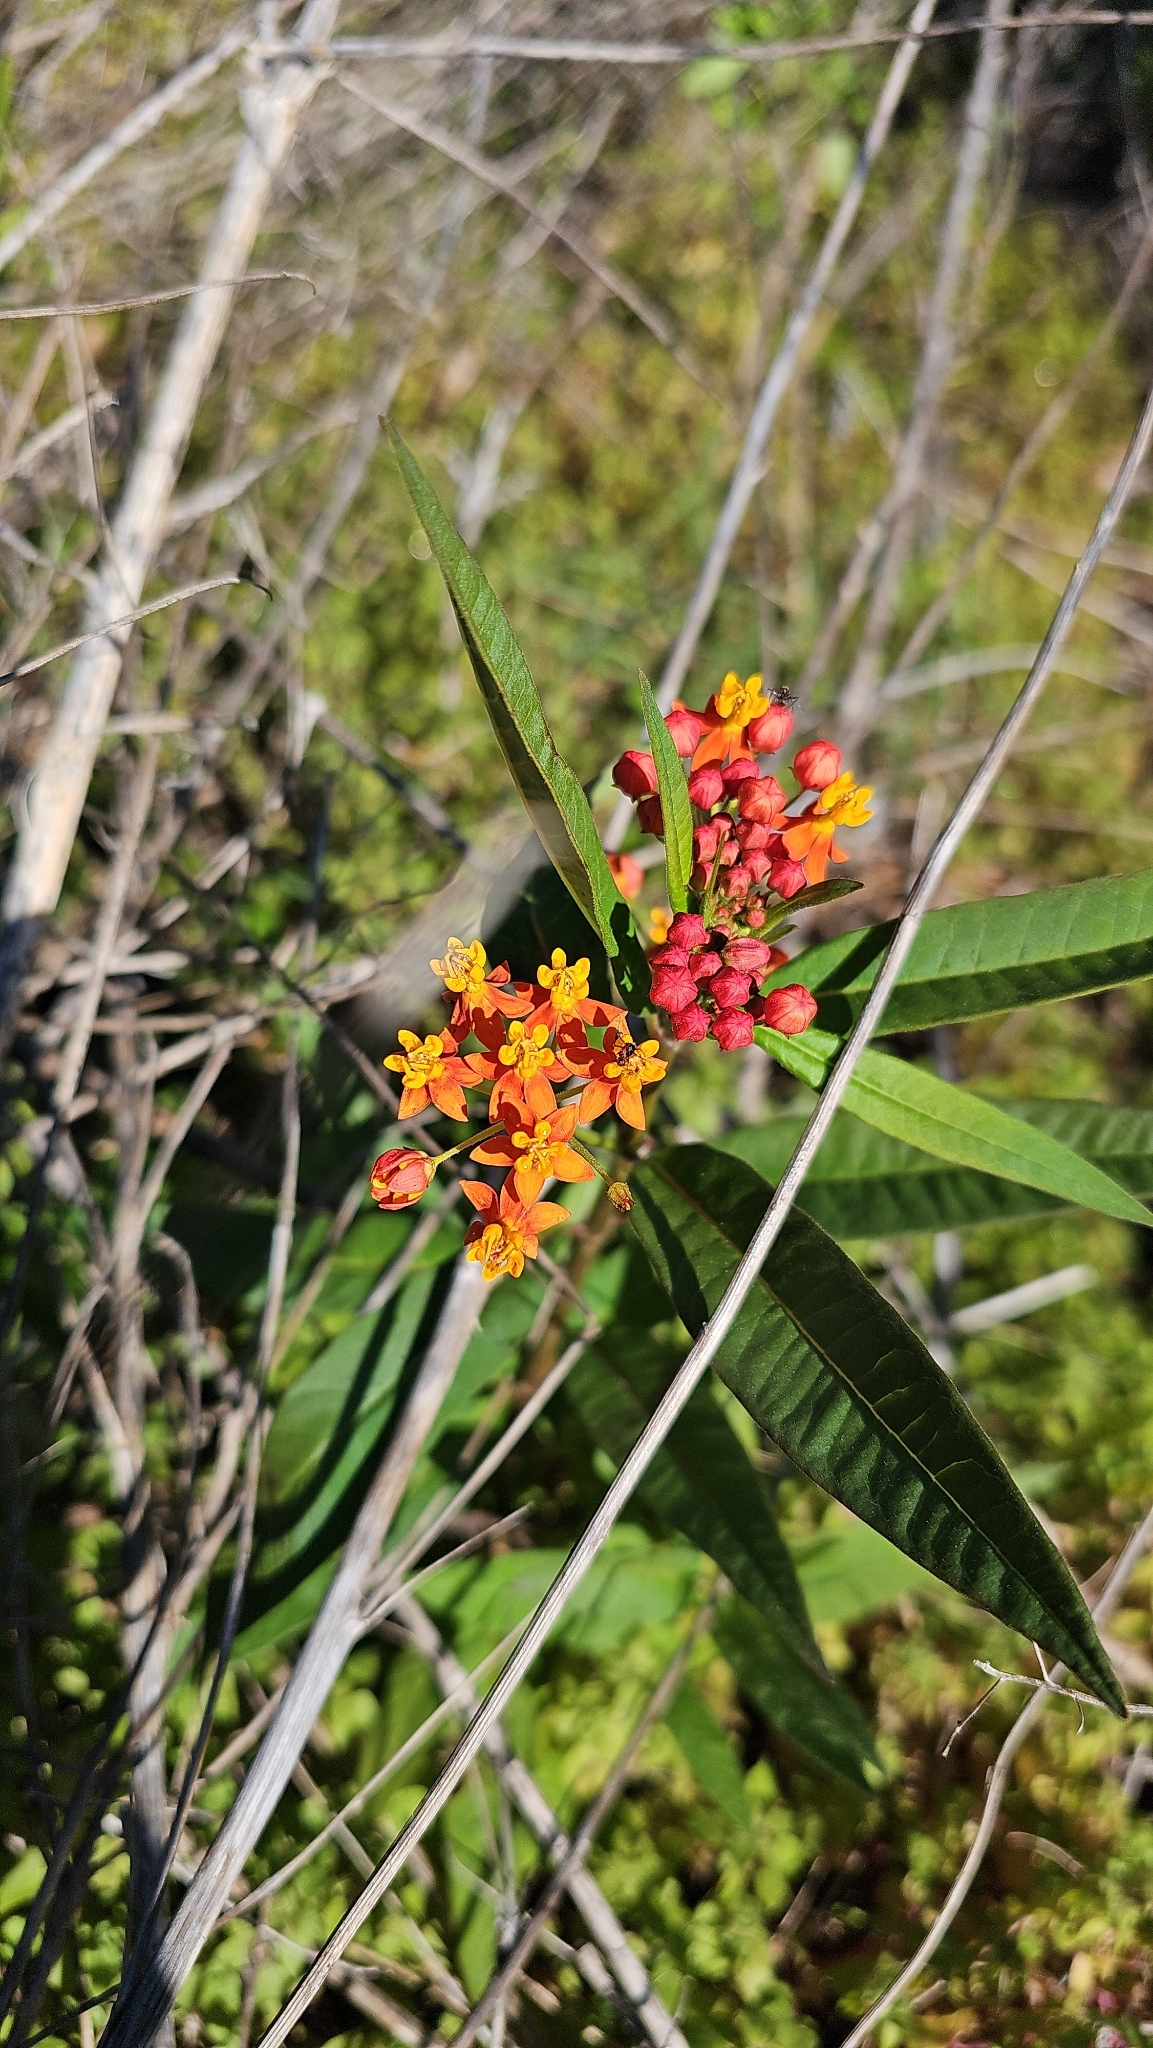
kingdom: Plantae
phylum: Tracheophyta
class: Magnoliopsida
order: Gentianales
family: Apocynaceae
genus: Asclepias
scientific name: Asclepias curassavica
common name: Bloodflower
